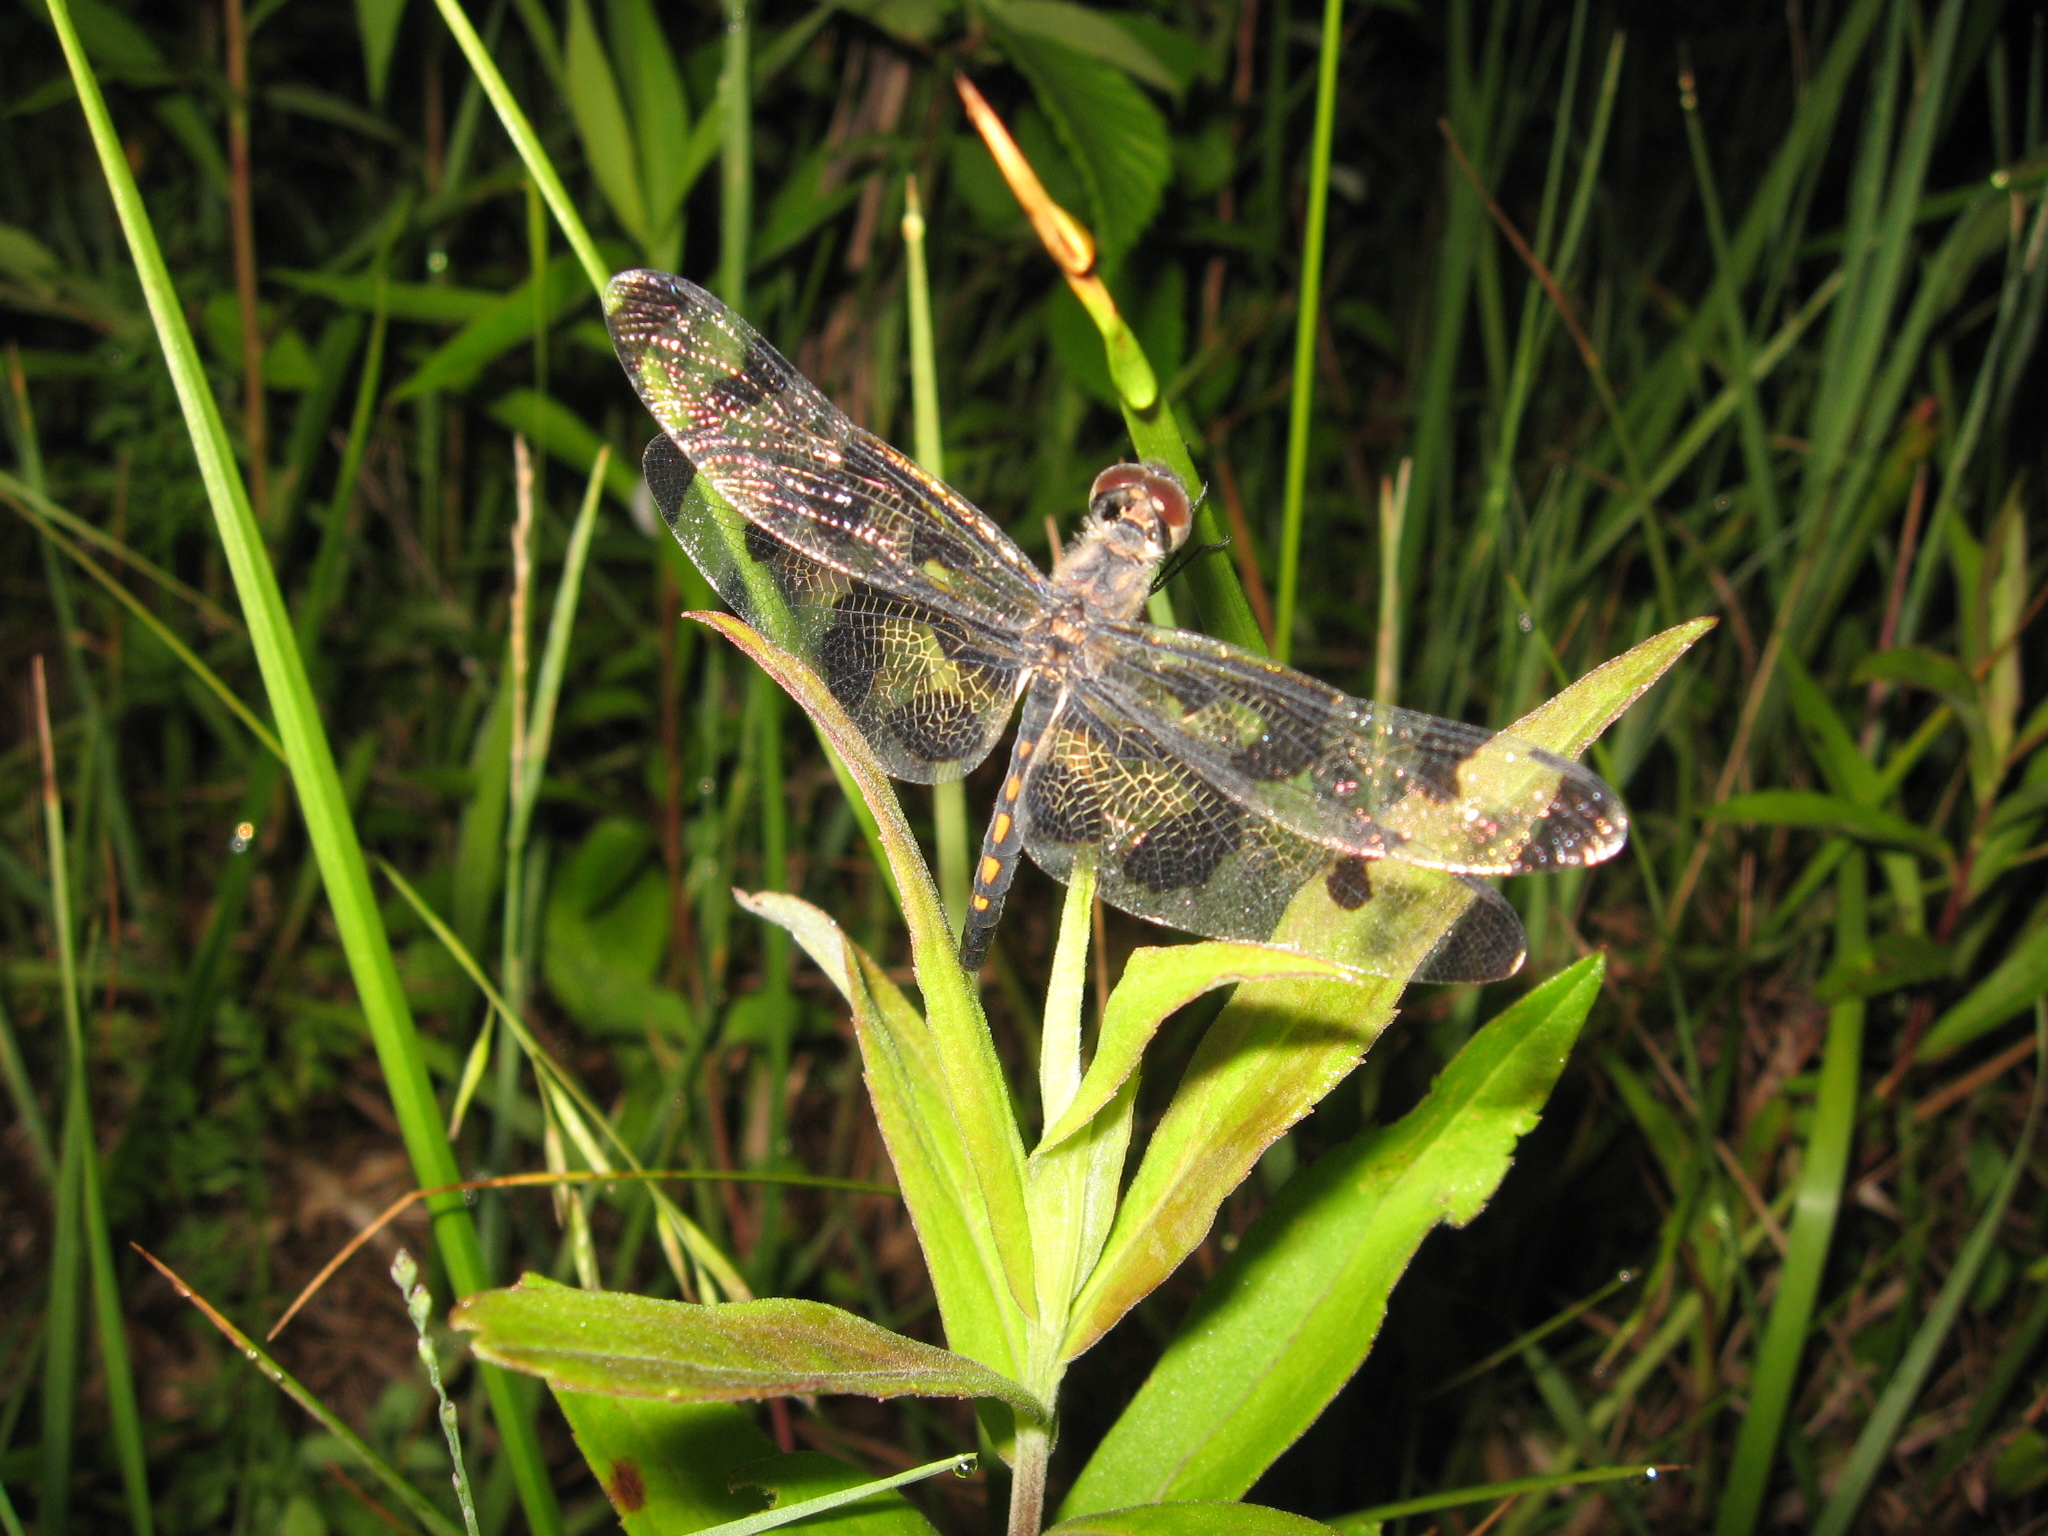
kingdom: Animalia
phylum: Arthropoda
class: Insecta
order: Odonata
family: Libellulidae
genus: Celithemis
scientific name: Celithemis fasciata
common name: Banded pennant
